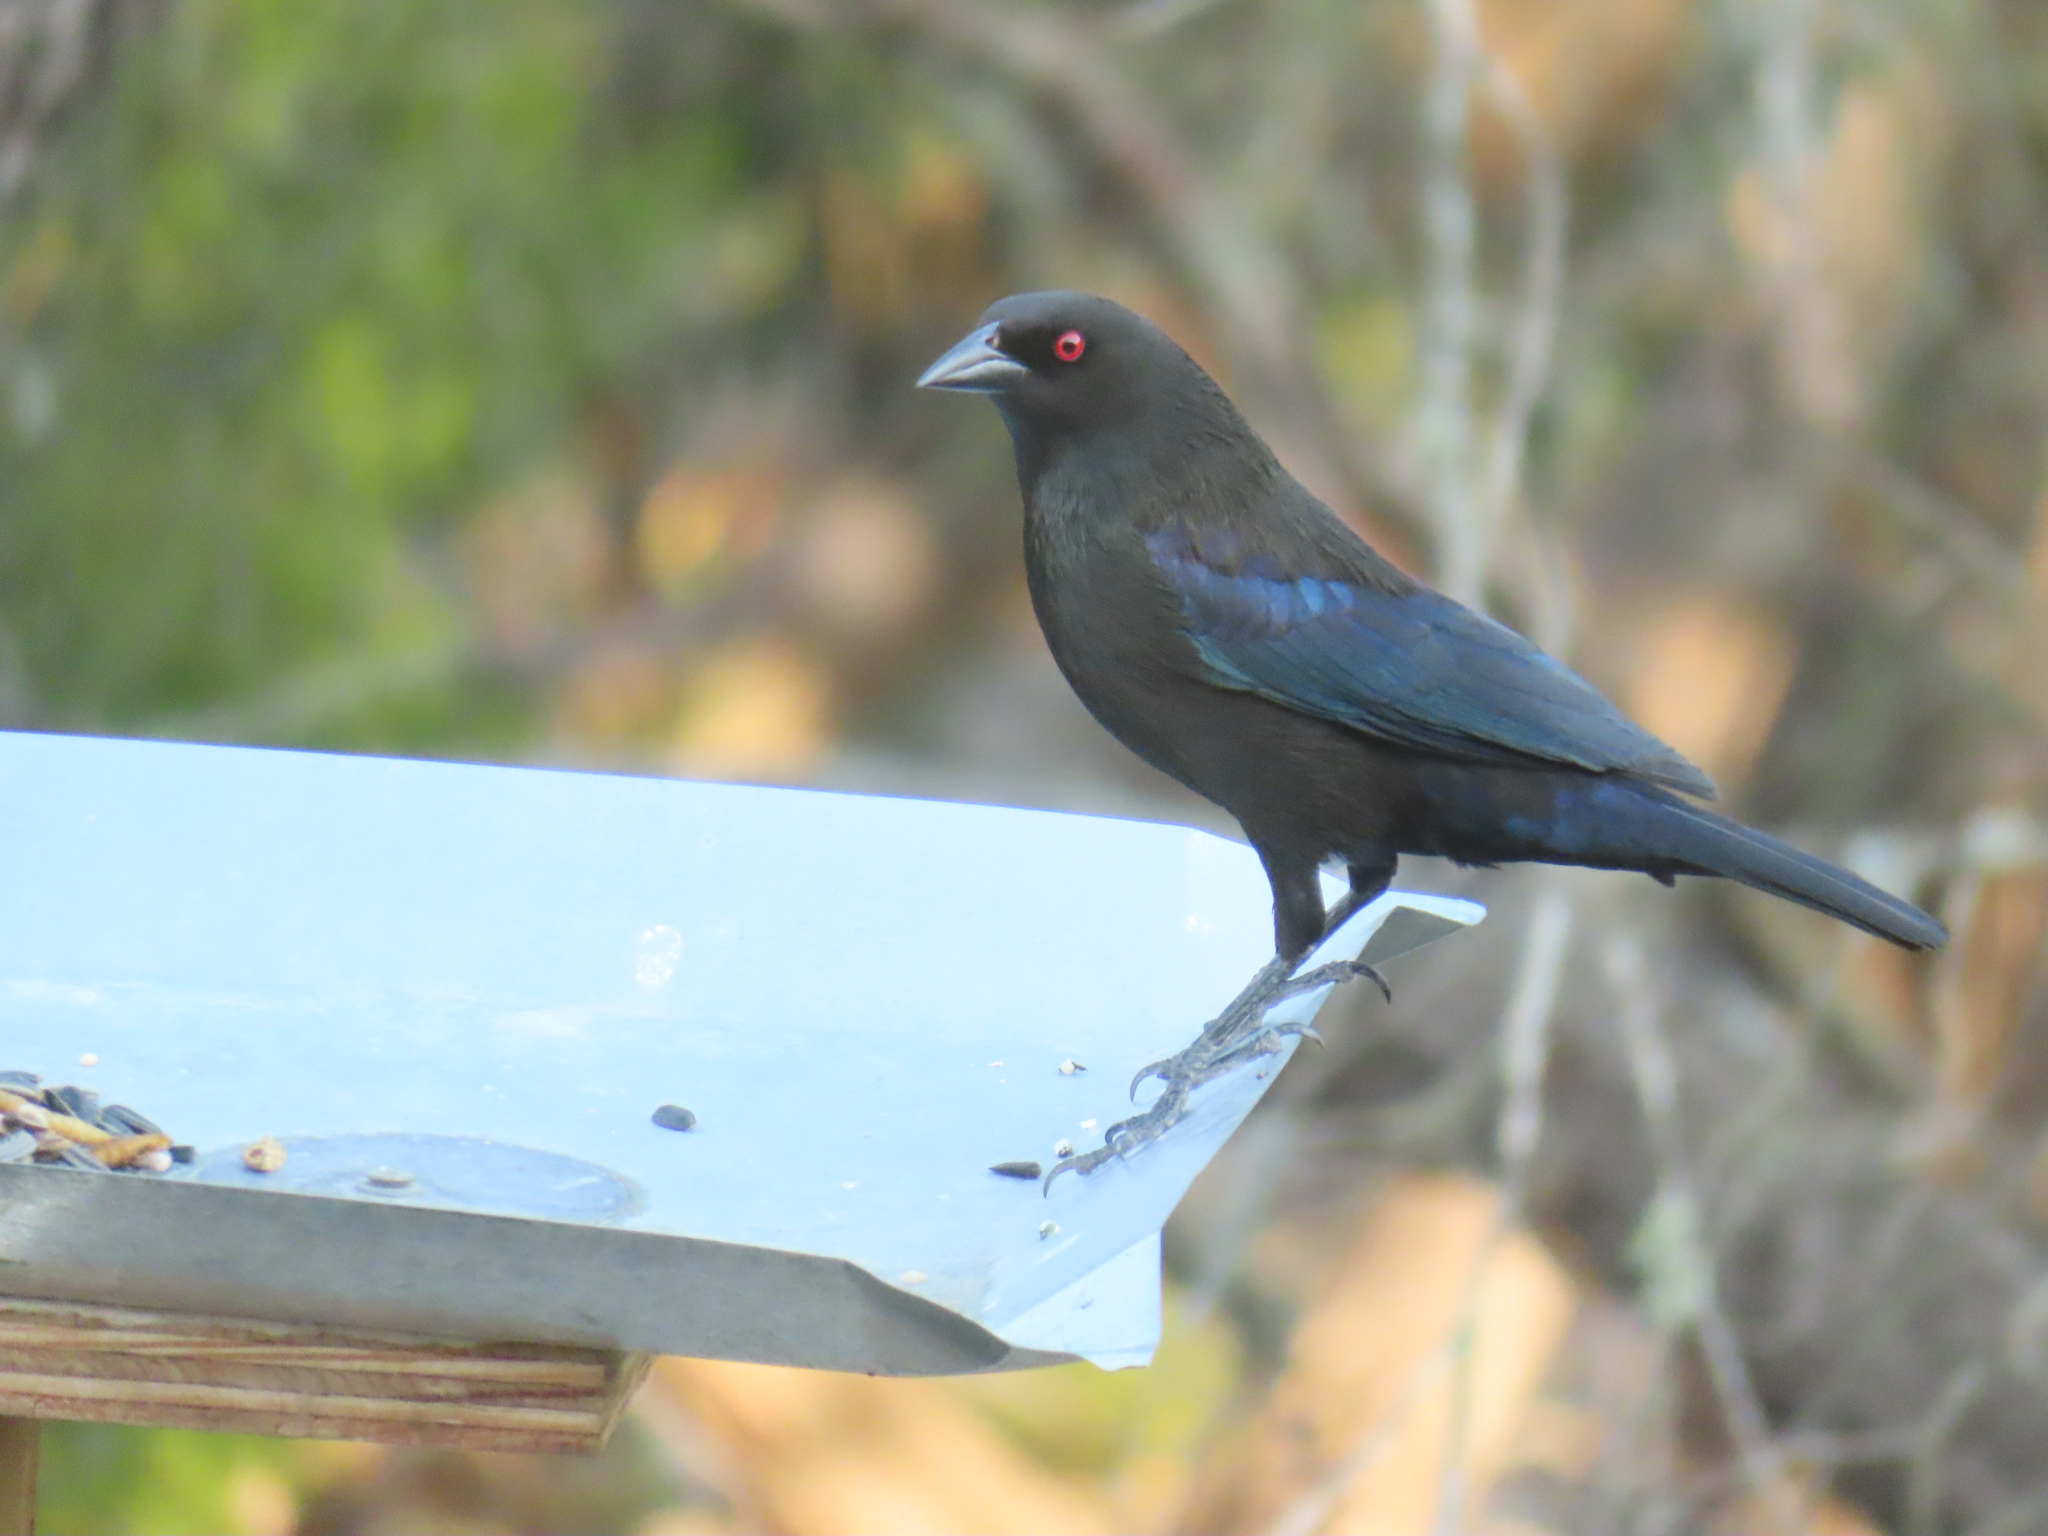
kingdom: Animalia
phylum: Chordata
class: Aves
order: Passeriformes
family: Icteridae
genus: Molothrus
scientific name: Molothrus aeneus
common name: Bronzed cowbird
